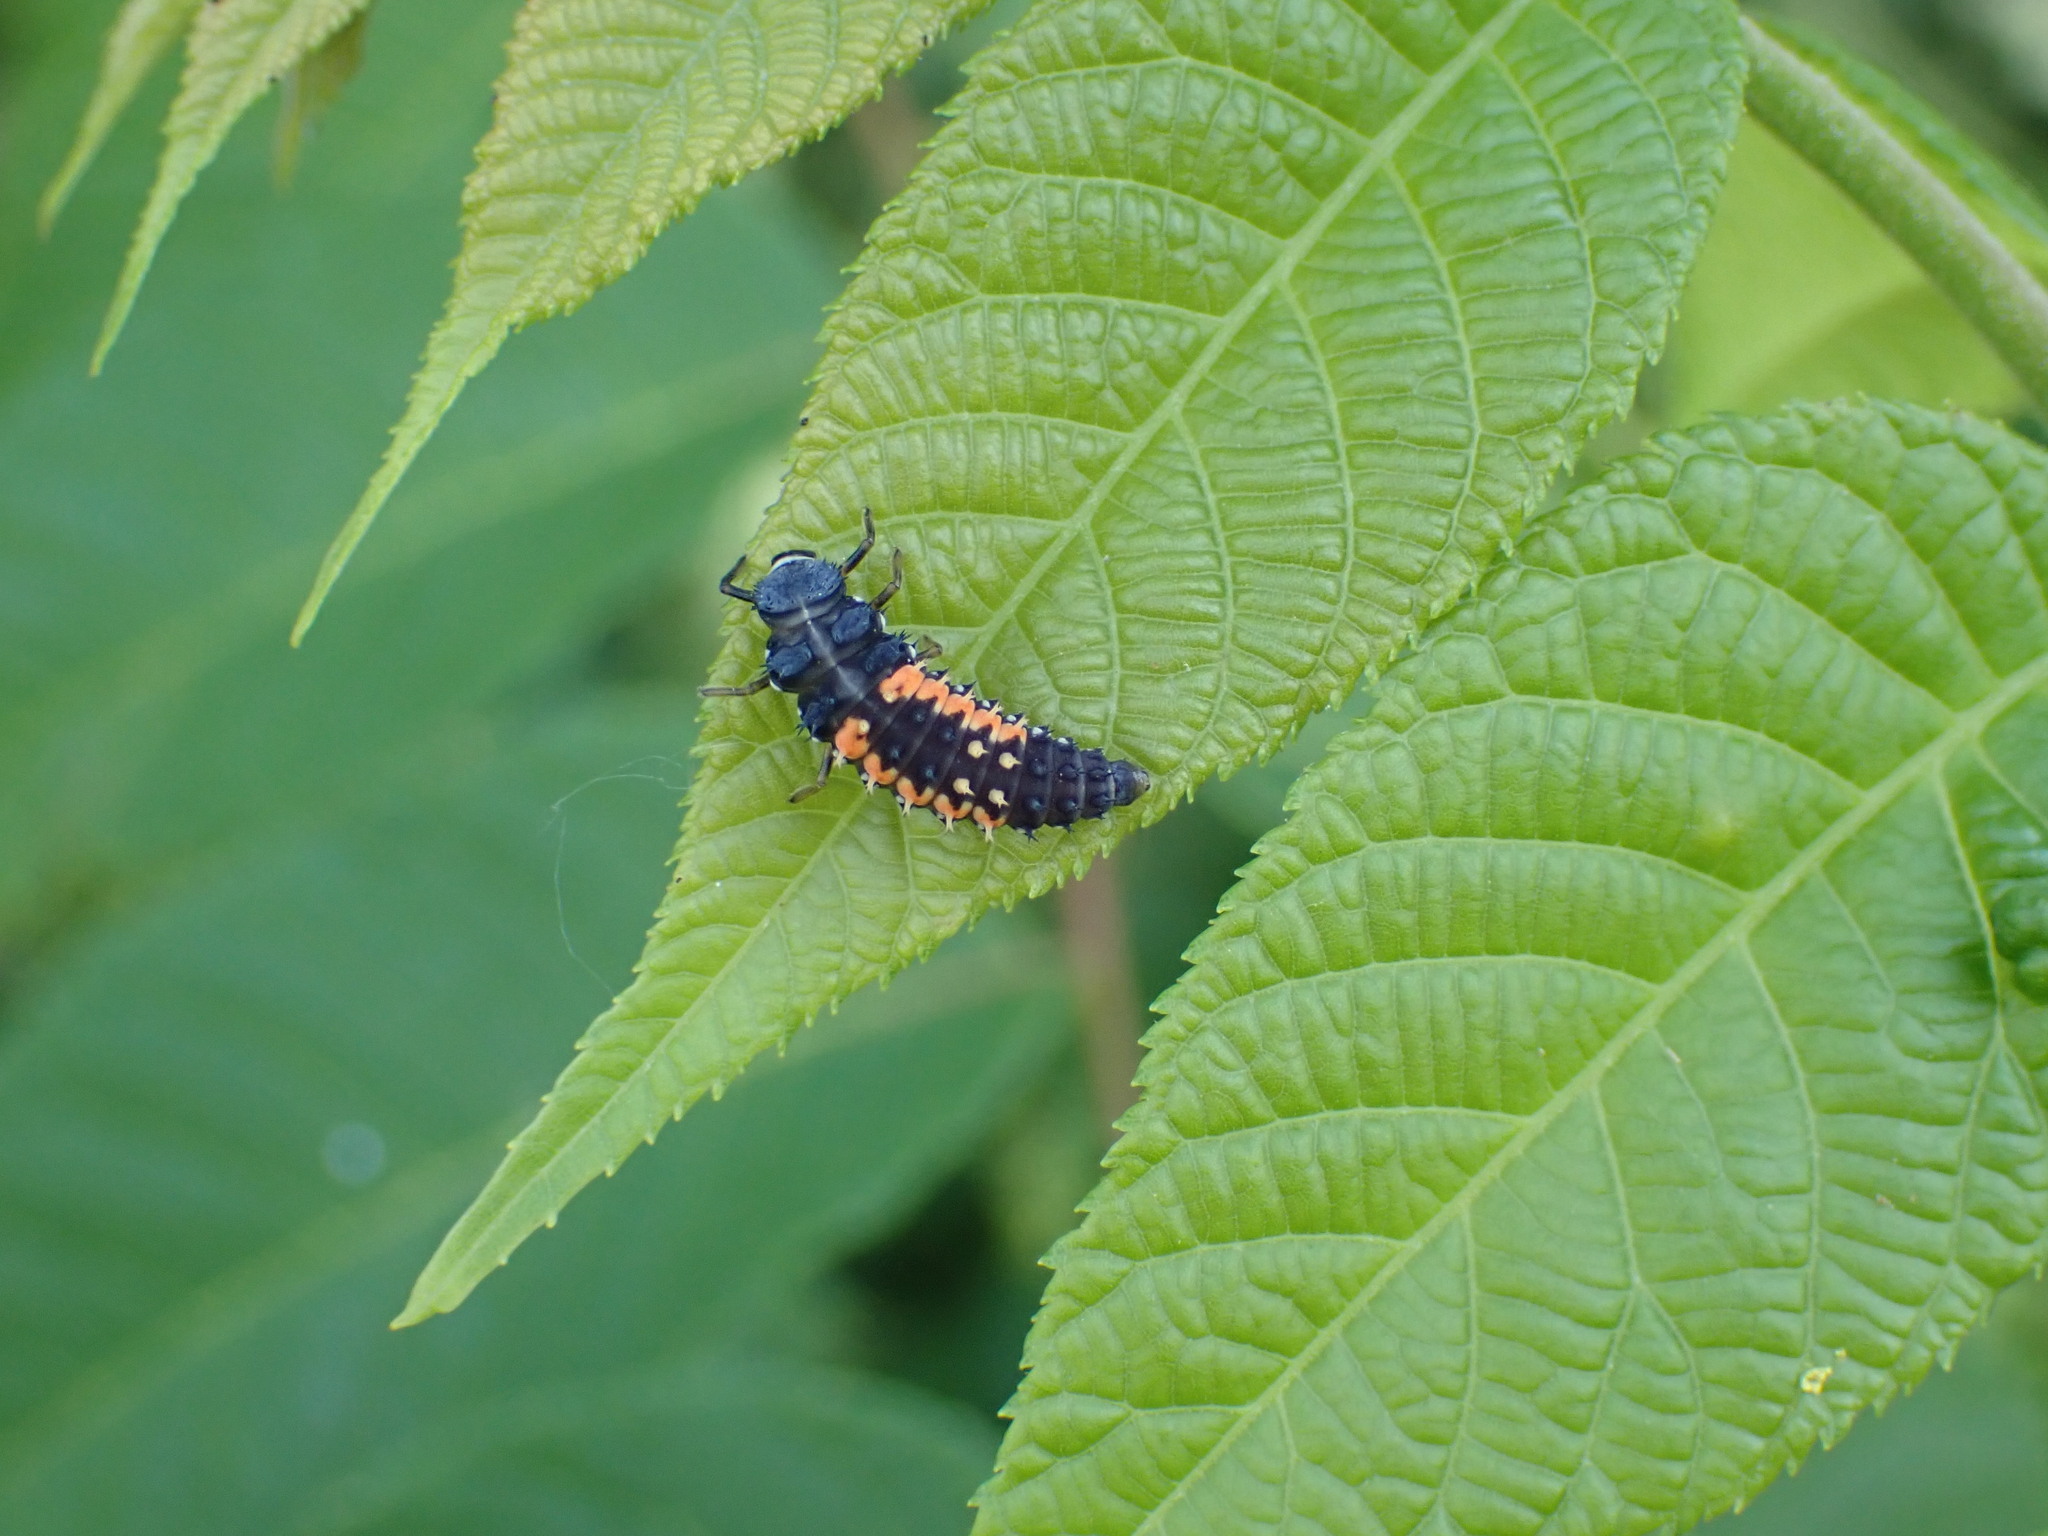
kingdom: Animalia
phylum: Arthropoda
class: Insecta
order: Coleoptera
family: Coccinellidae
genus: Harmonia
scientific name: Harmonia axyridis
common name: Harlequin ladybird
